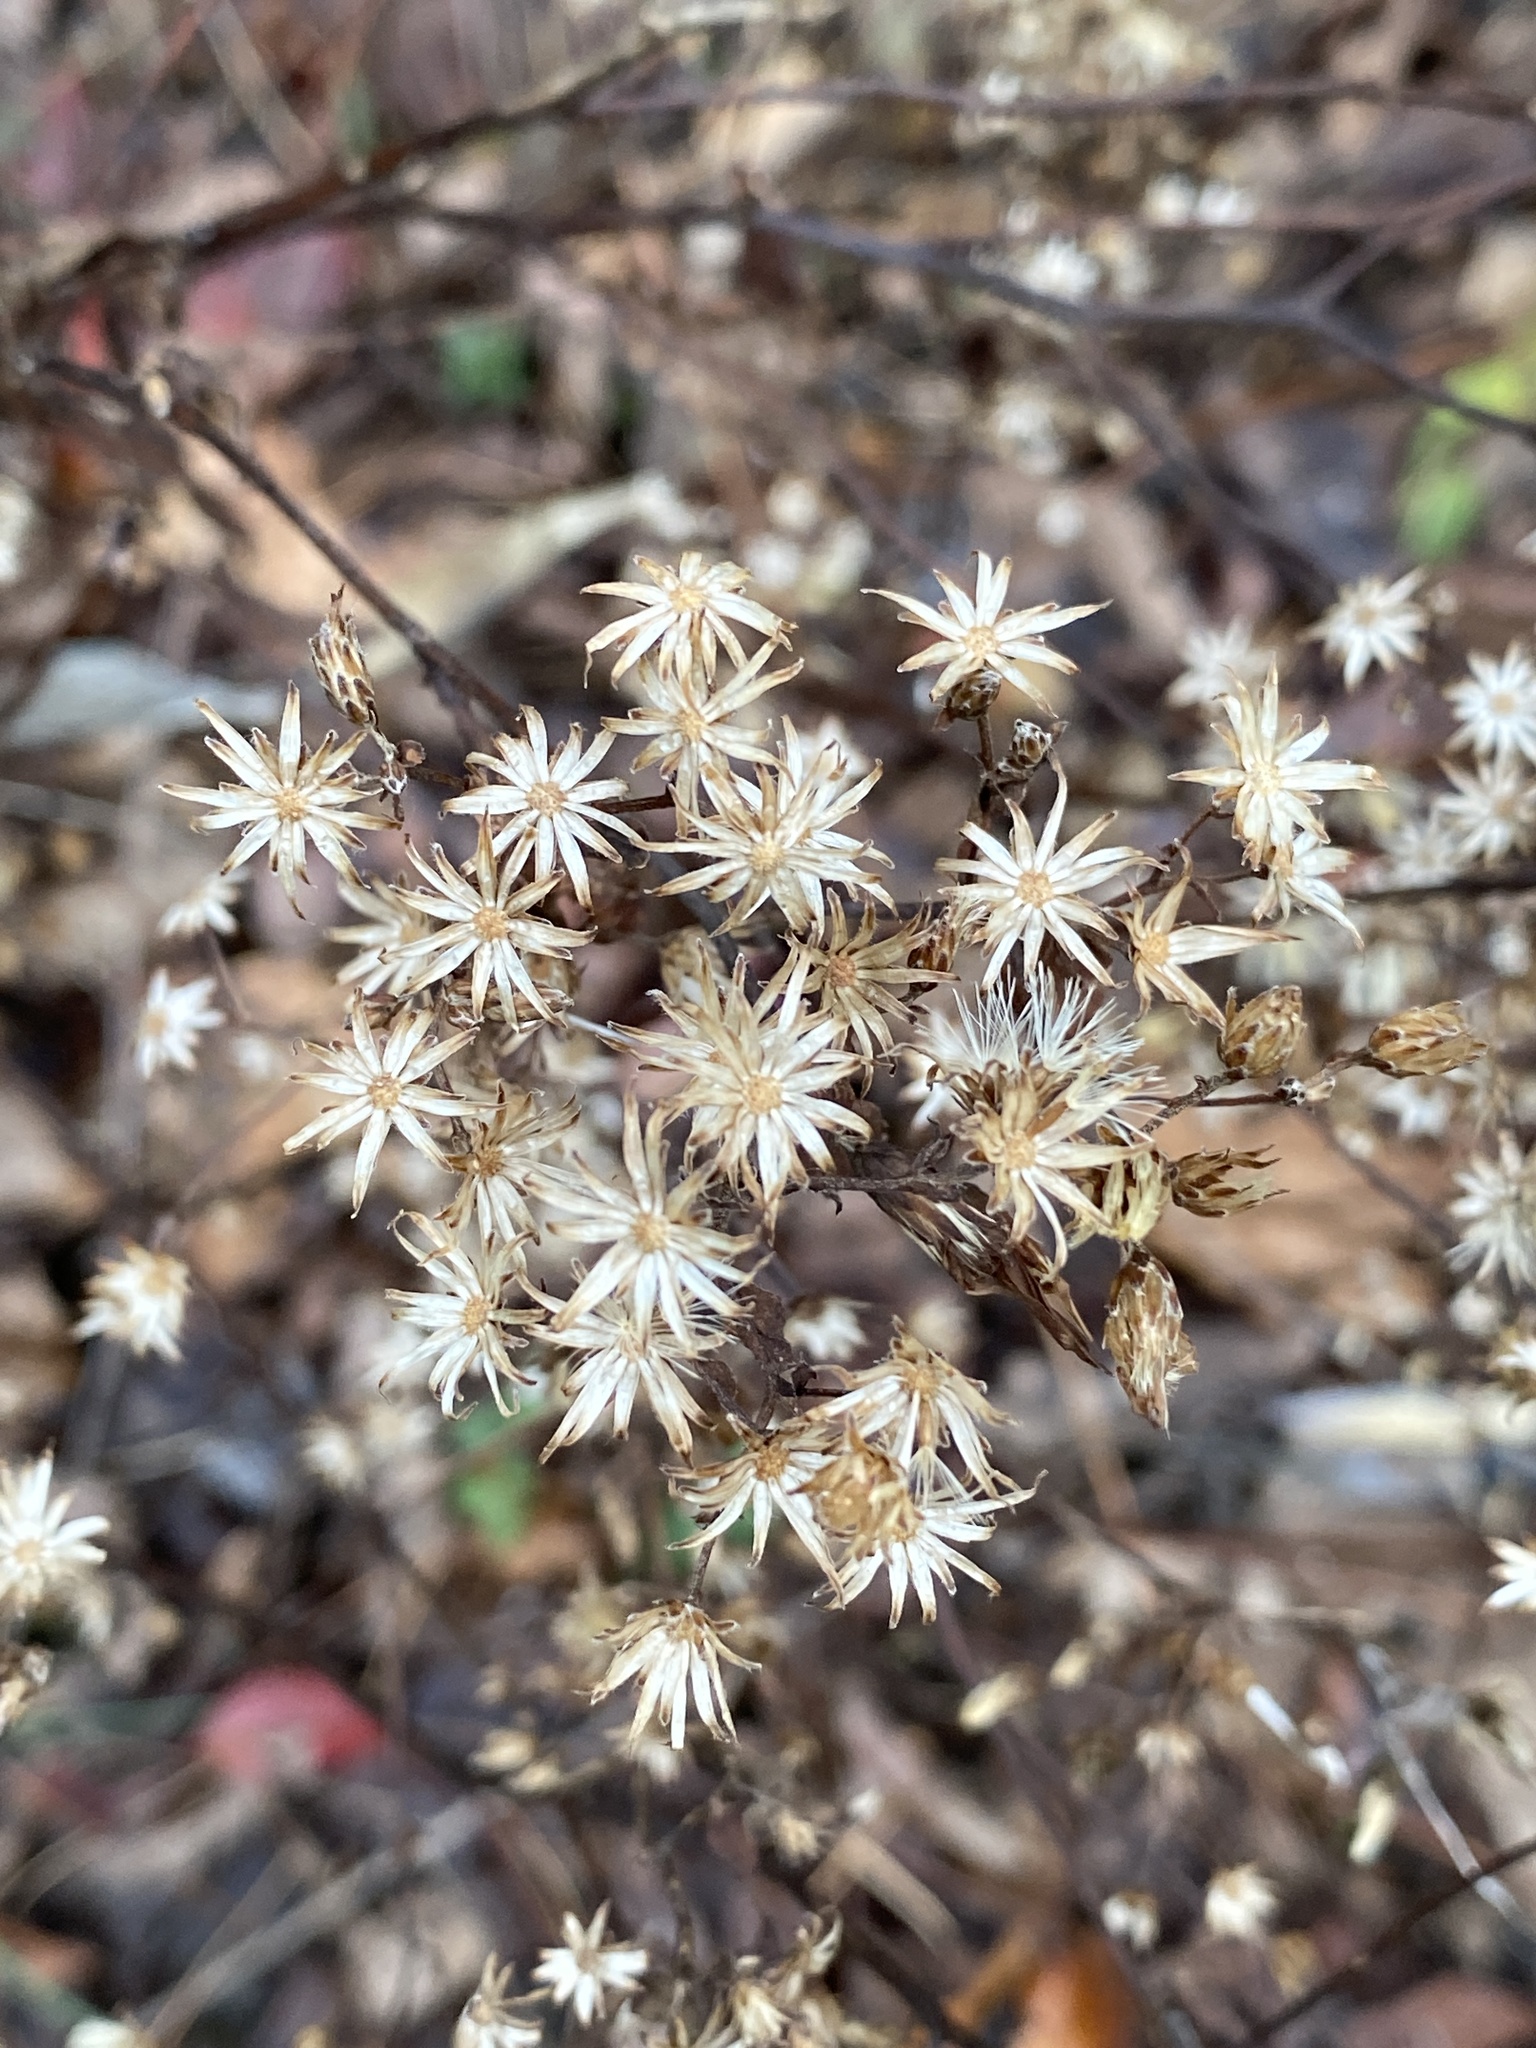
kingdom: Plantae
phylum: Tracheophyta
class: Magnoliopsida
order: Asterales
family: Asteraceae
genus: Eurybia
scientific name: Eurybia divaricata
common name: White wood aster
